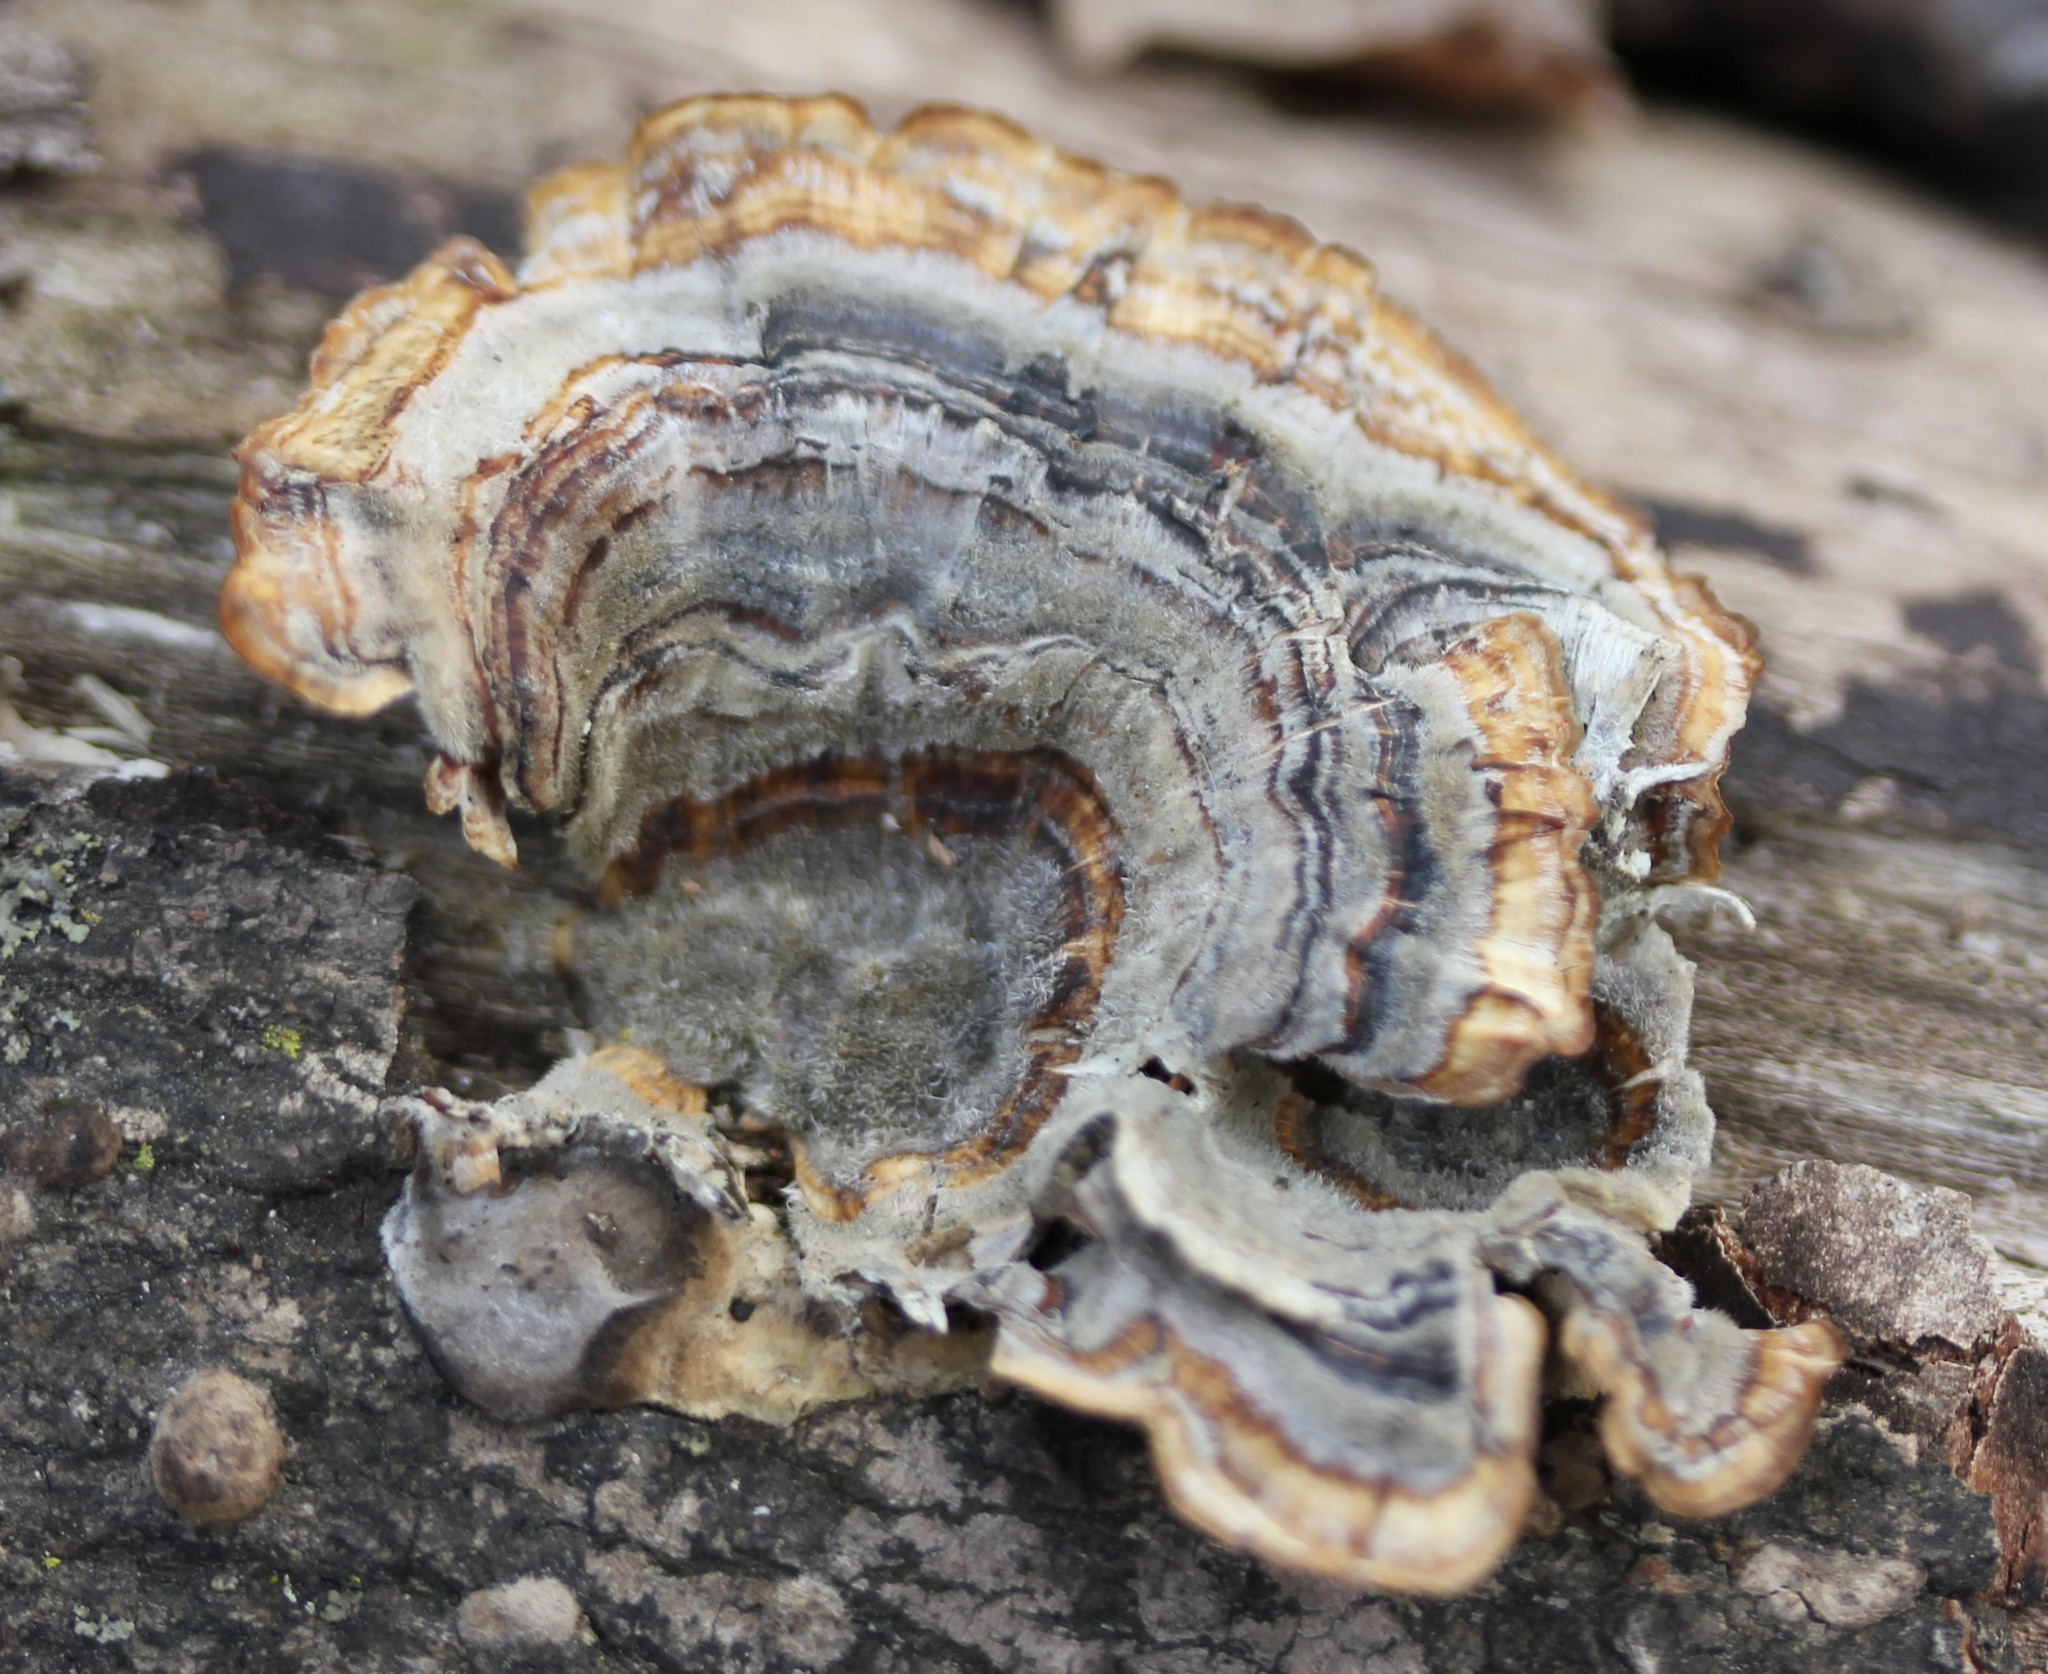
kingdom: Fungi
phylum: Basidiomycota
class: Agaricomycetes
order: Polyporales
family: Polyporaceae
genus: Trametes
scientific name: Trametes versicolor
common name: Turkeytail
